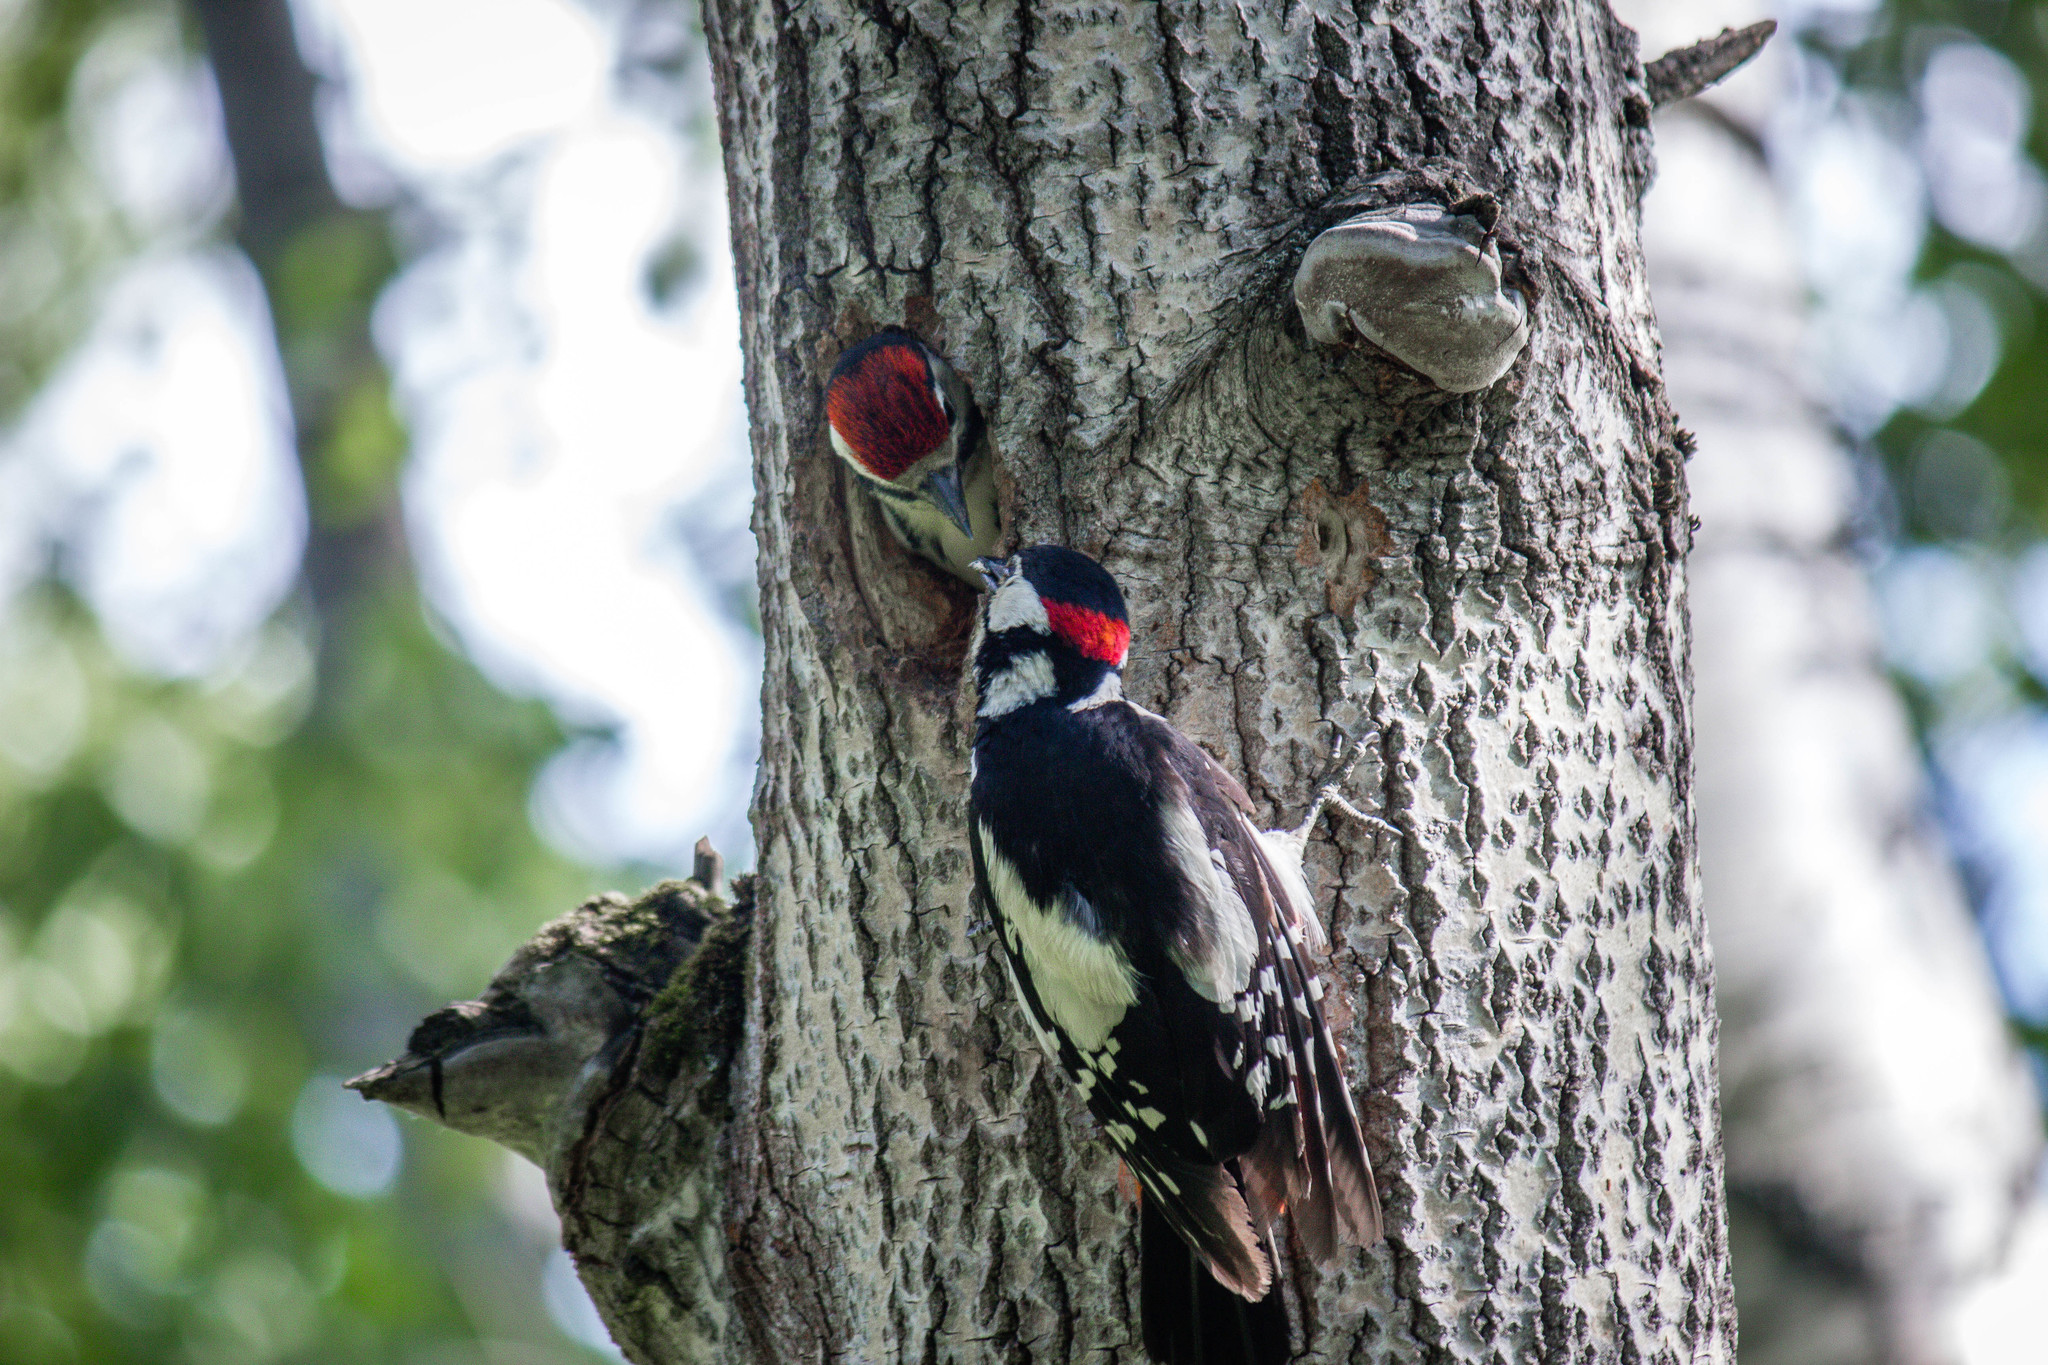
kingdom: Animalia
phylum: Chordata
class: Aves
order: Piciformes
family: Picidae
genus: Dendrocopos
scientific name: Dendrocopos major
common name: Great spotted woodpecker
